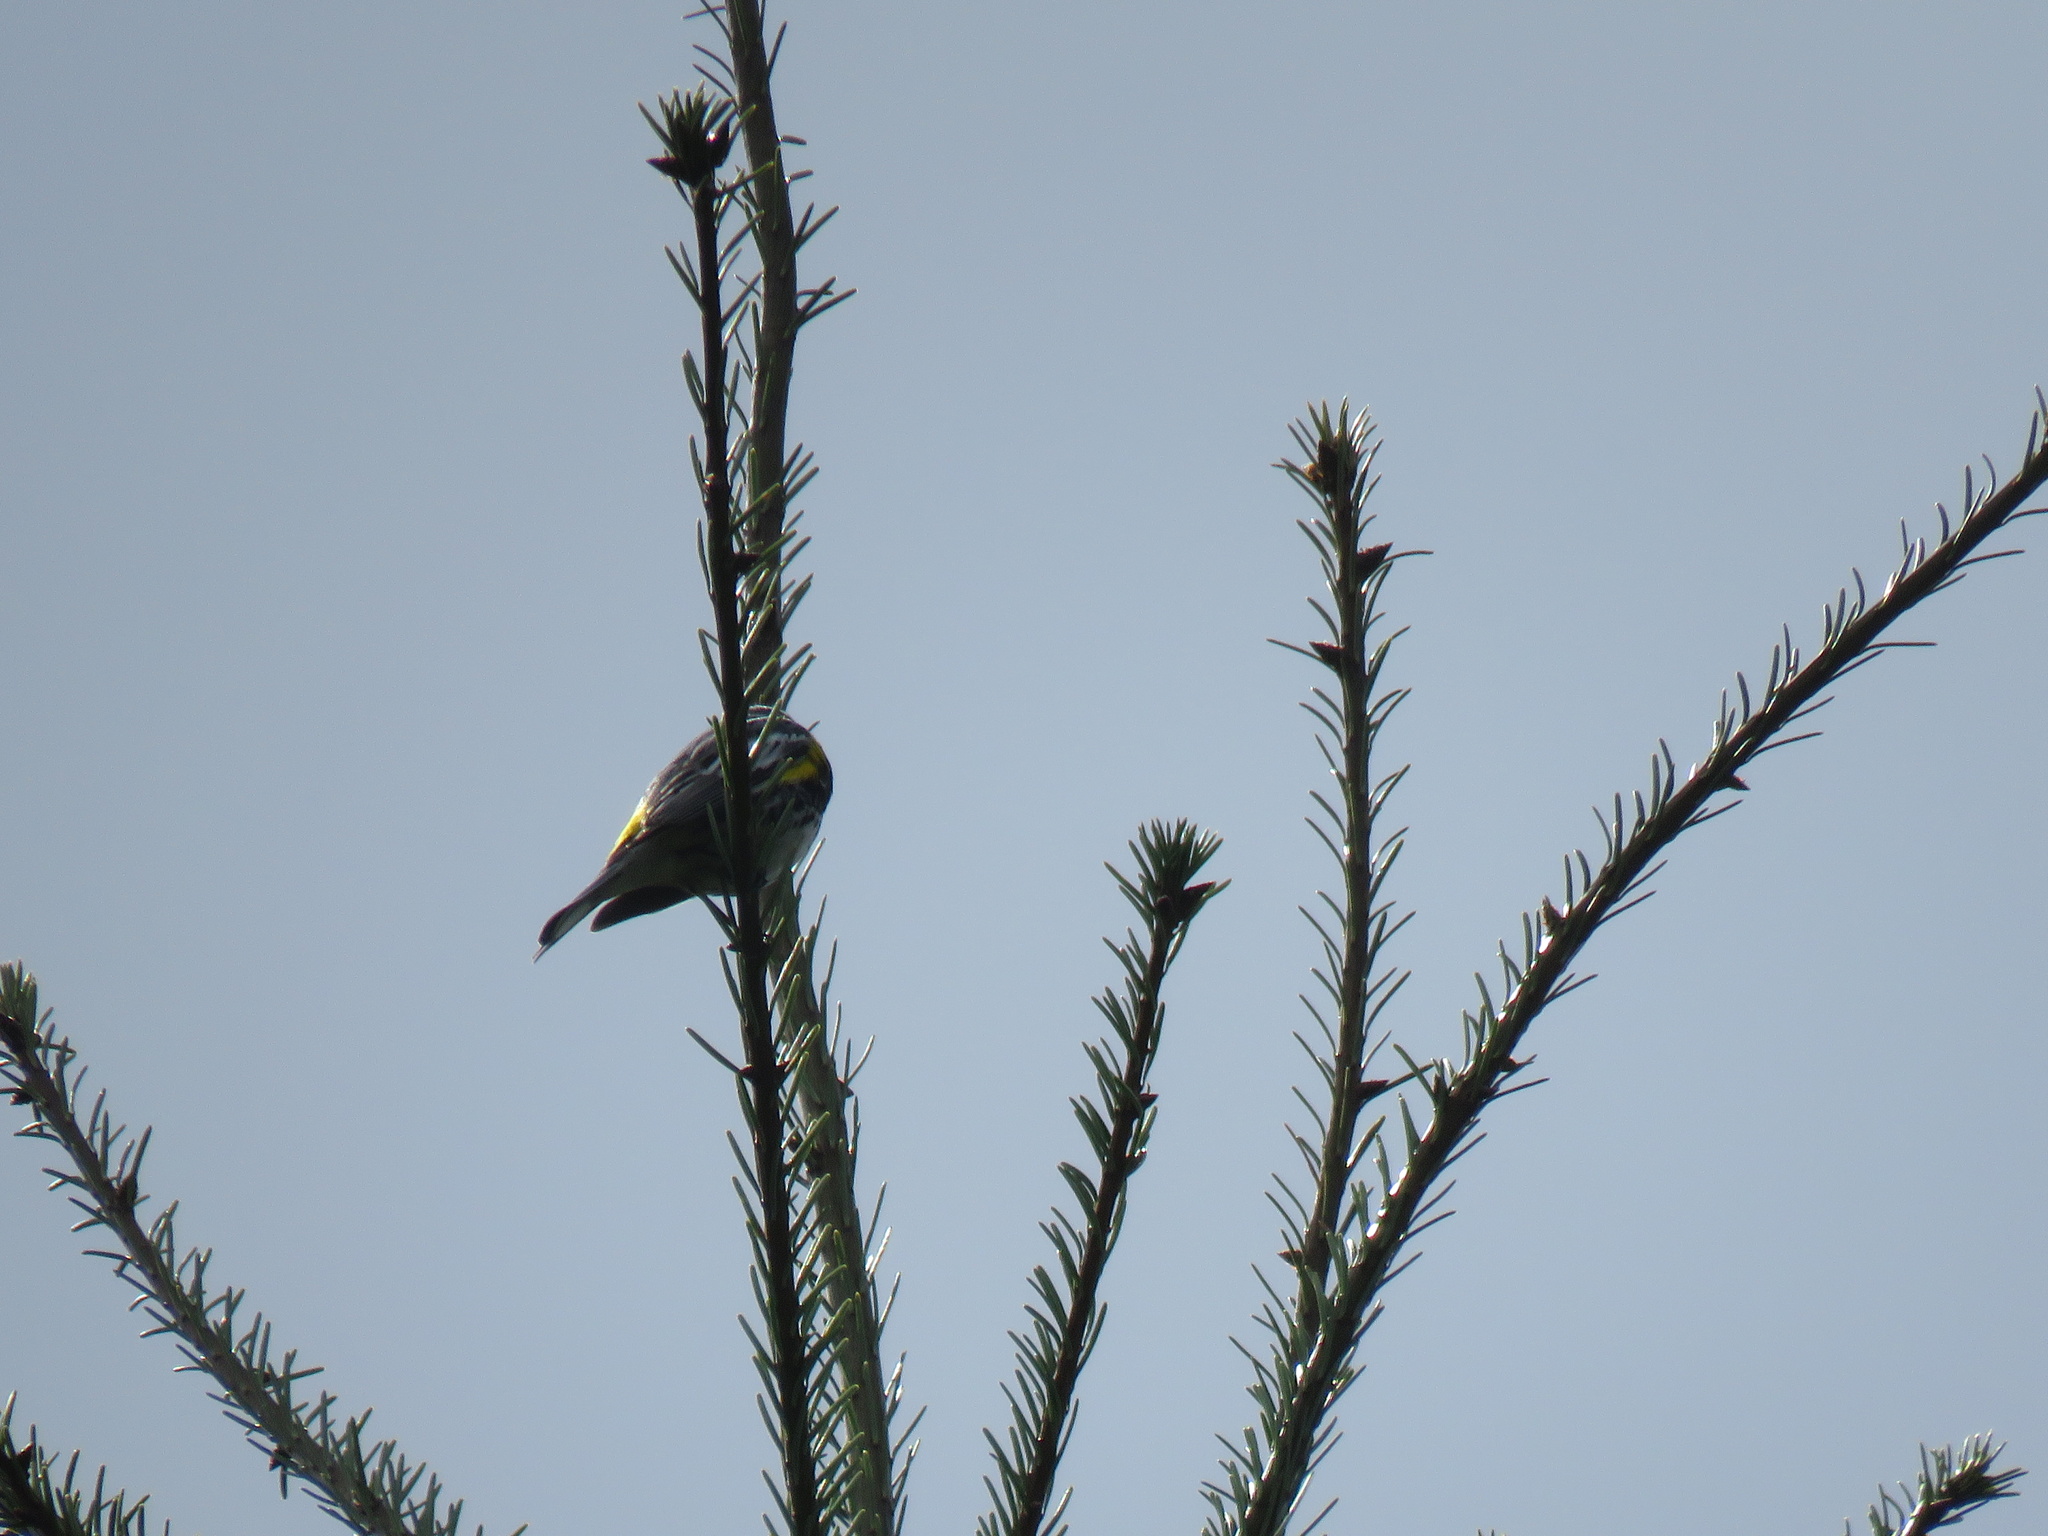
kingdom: Animalia
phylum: Chordata
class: Aves
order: Passeriformes
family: Parulidae
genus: Setophaga
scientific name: Setophaga coronata
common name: Myrtle warbler
